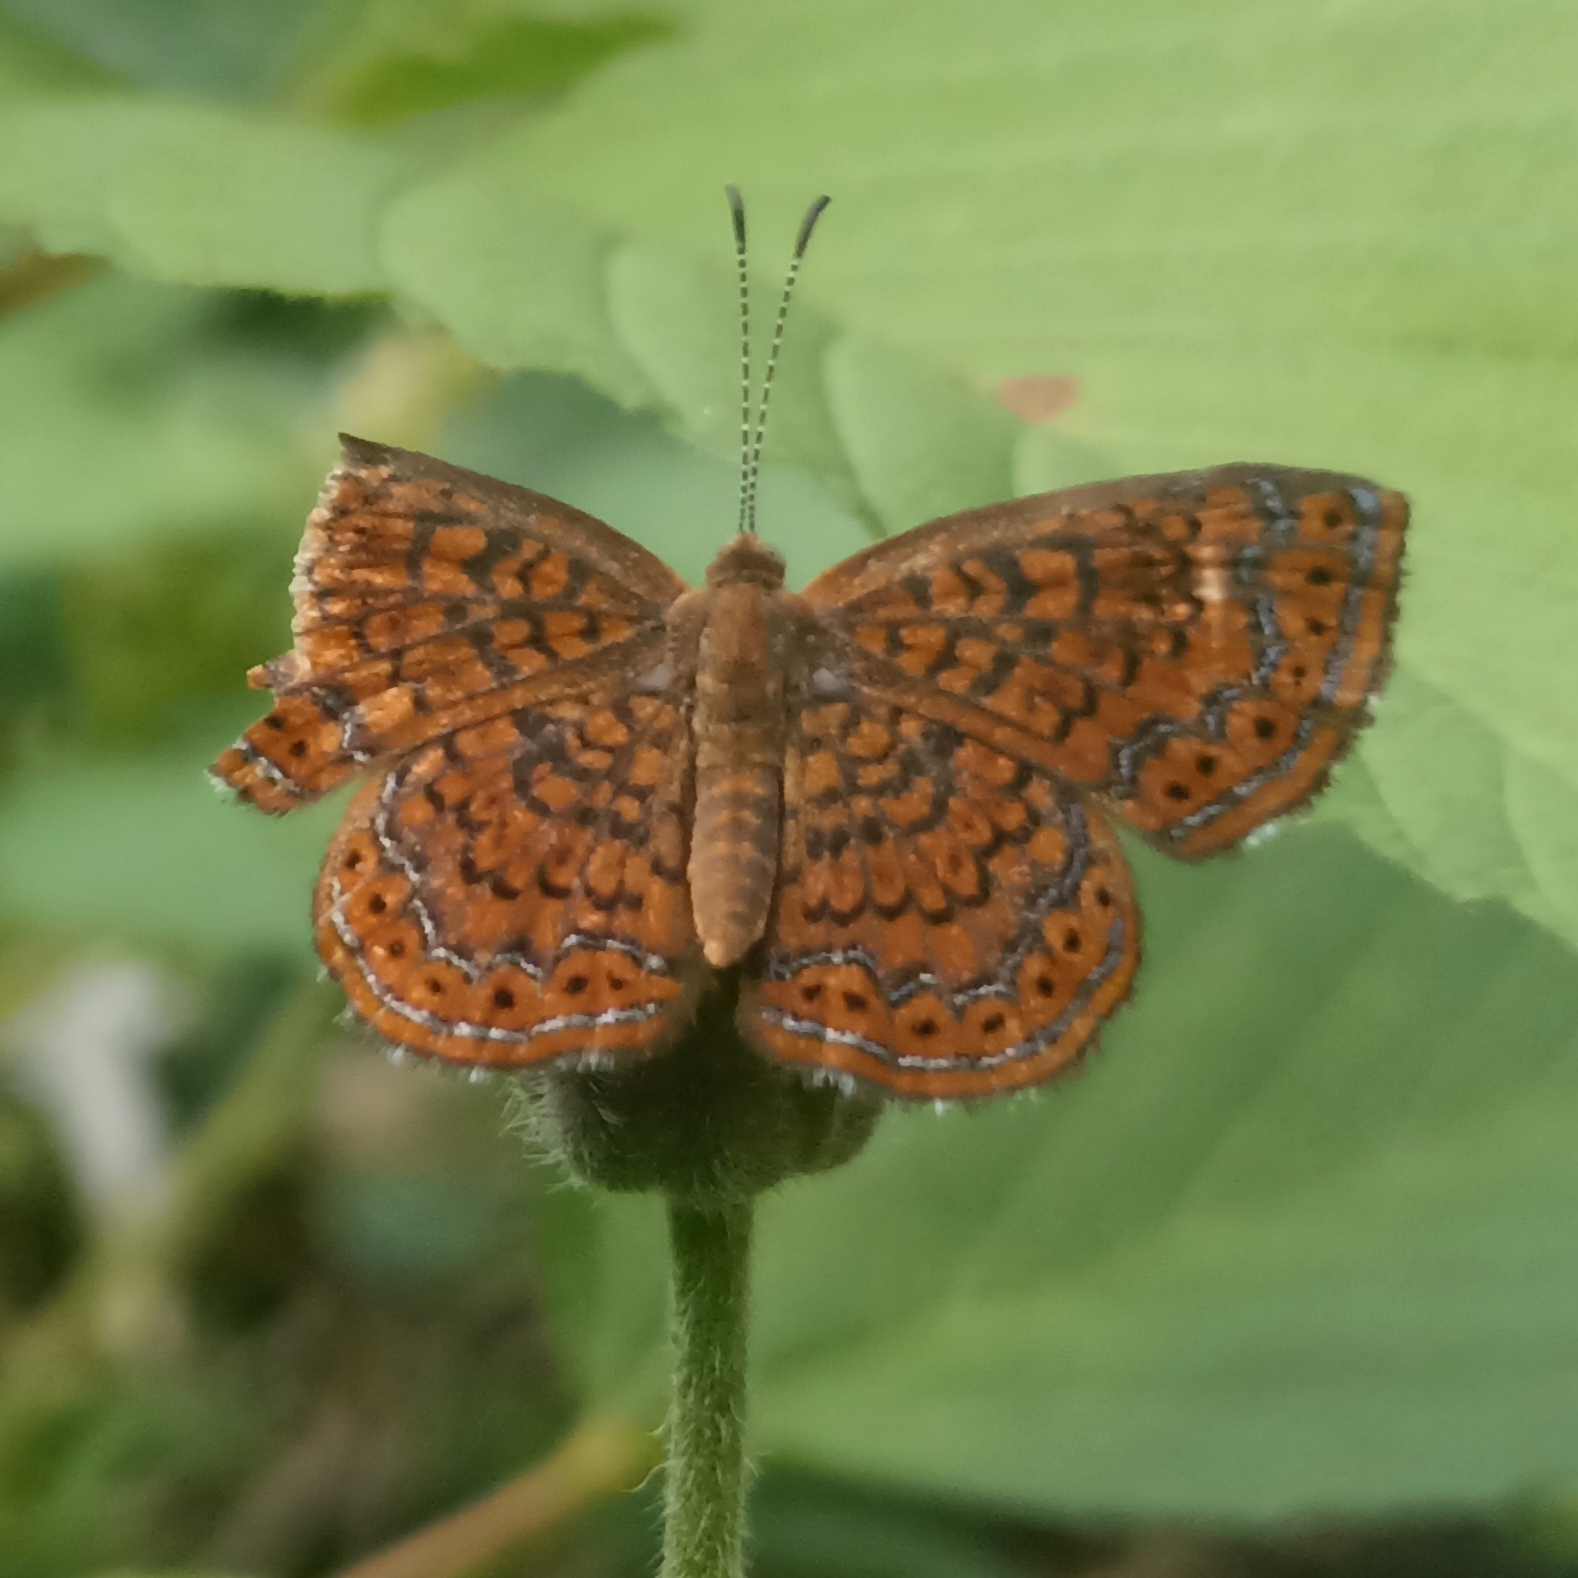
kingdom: Animalia
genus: Calephelis
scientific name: Calephelis laverna
